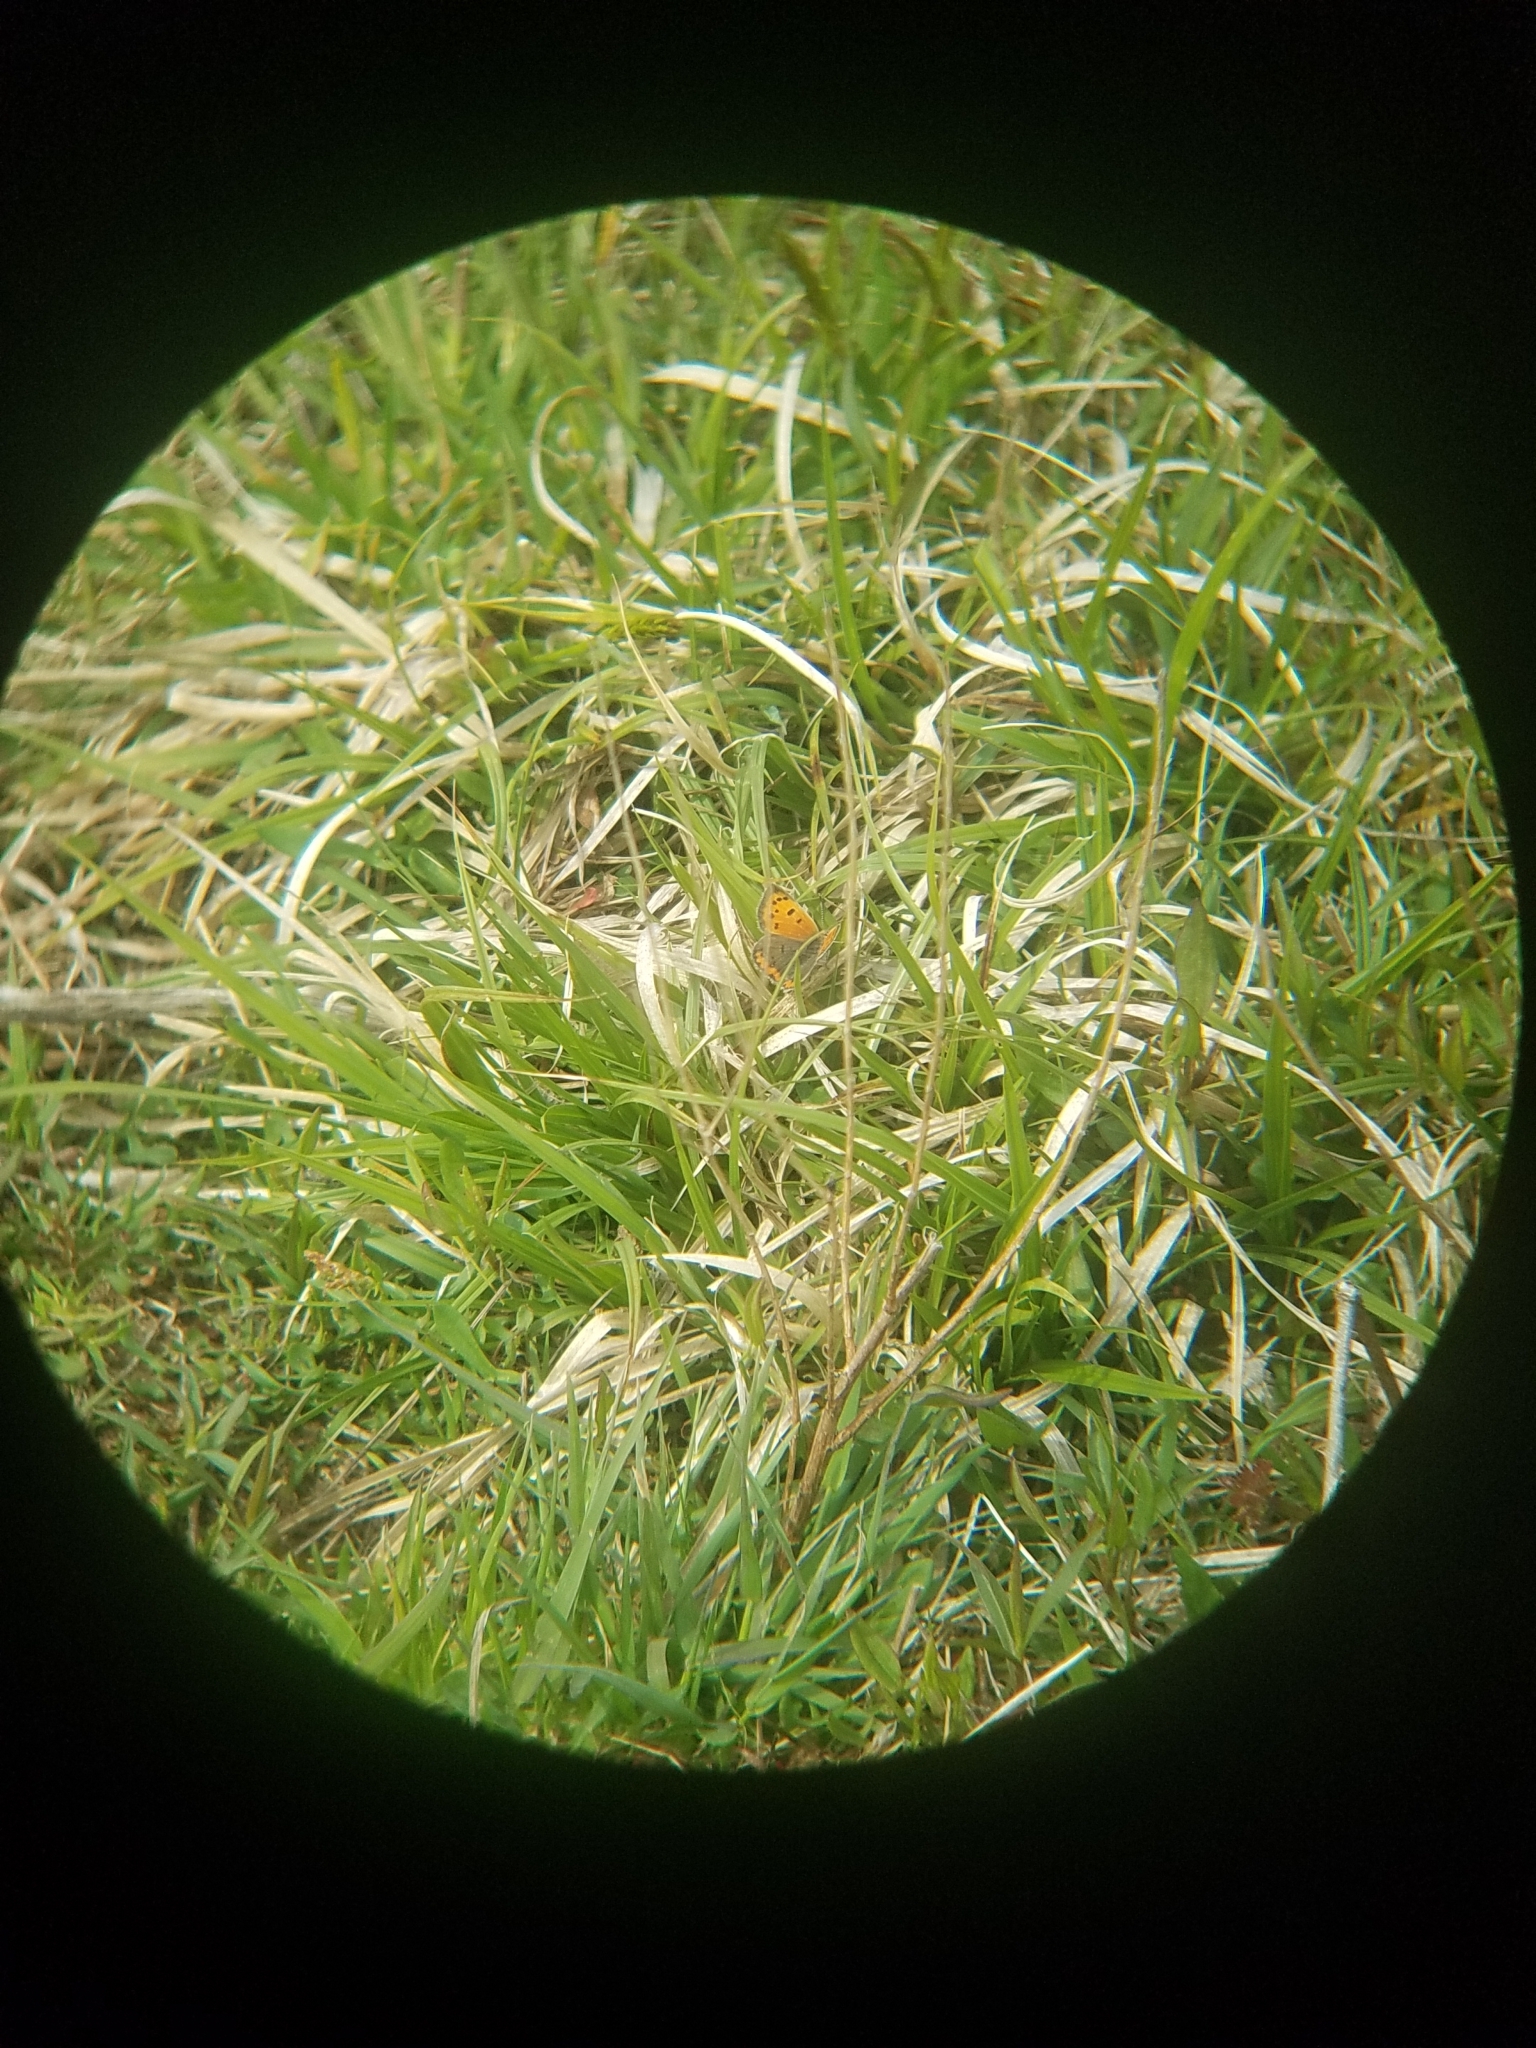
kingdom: Animalia
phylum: Arthropoda
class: Insecta
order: Lepidoptera
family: Lycaenidae
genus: Lycaena
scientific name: Lycaena hypophlaeas
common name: American copper
